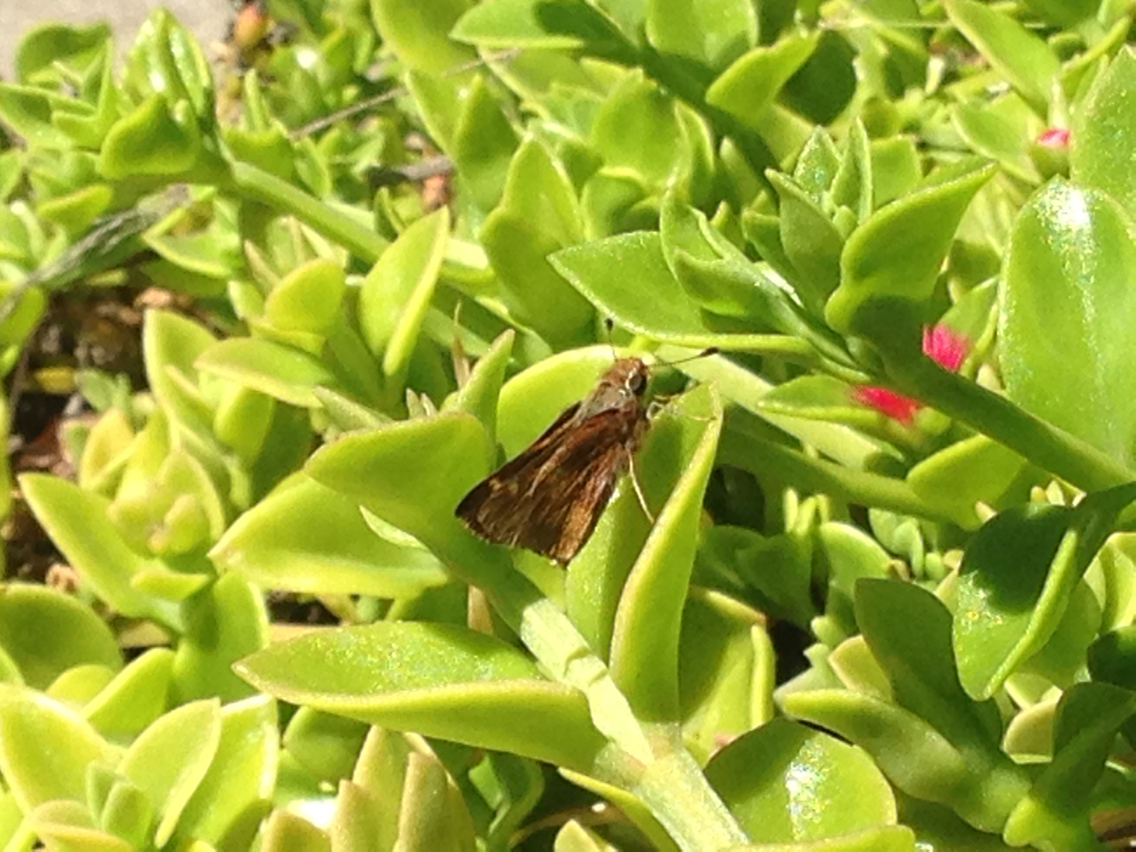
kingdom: Animalia
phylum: Arthropoda
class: Insecta
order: Lepidoptera
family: Hesperiidae
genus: Lon
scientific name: Lon melane
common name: Umber skipper
